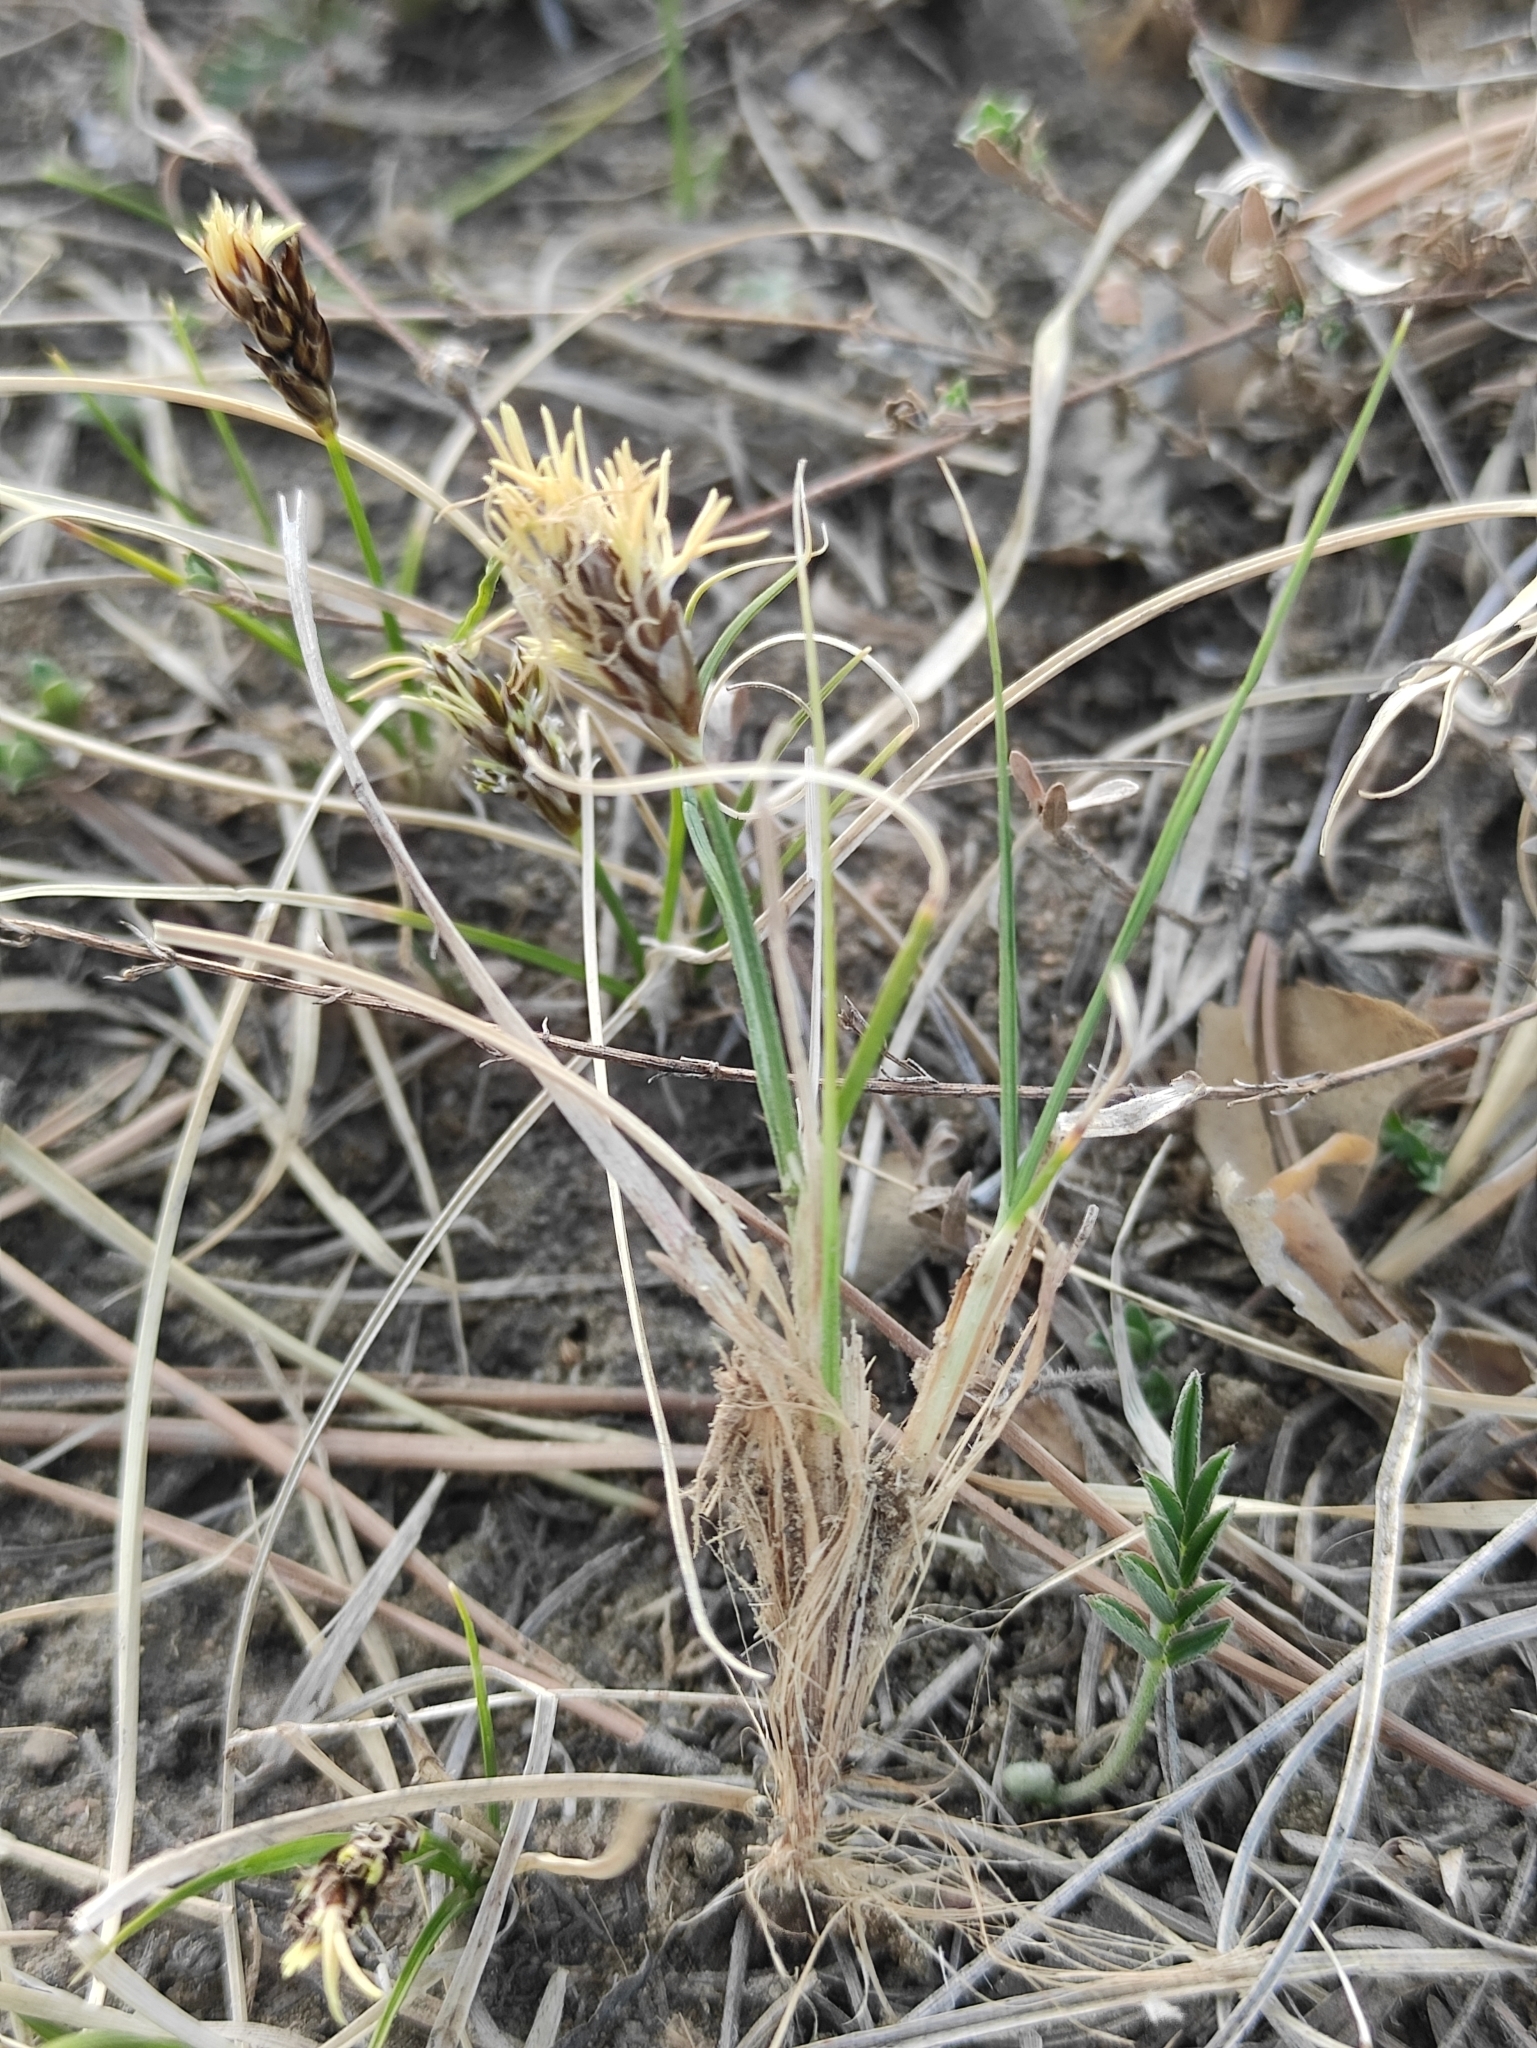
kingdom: Plantae
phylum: Tracheophyta
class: Liliopsida
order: Poales
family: Cyperaceae
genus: Carex
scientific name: Carex duriuscula
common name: Involute-leaved sedge
